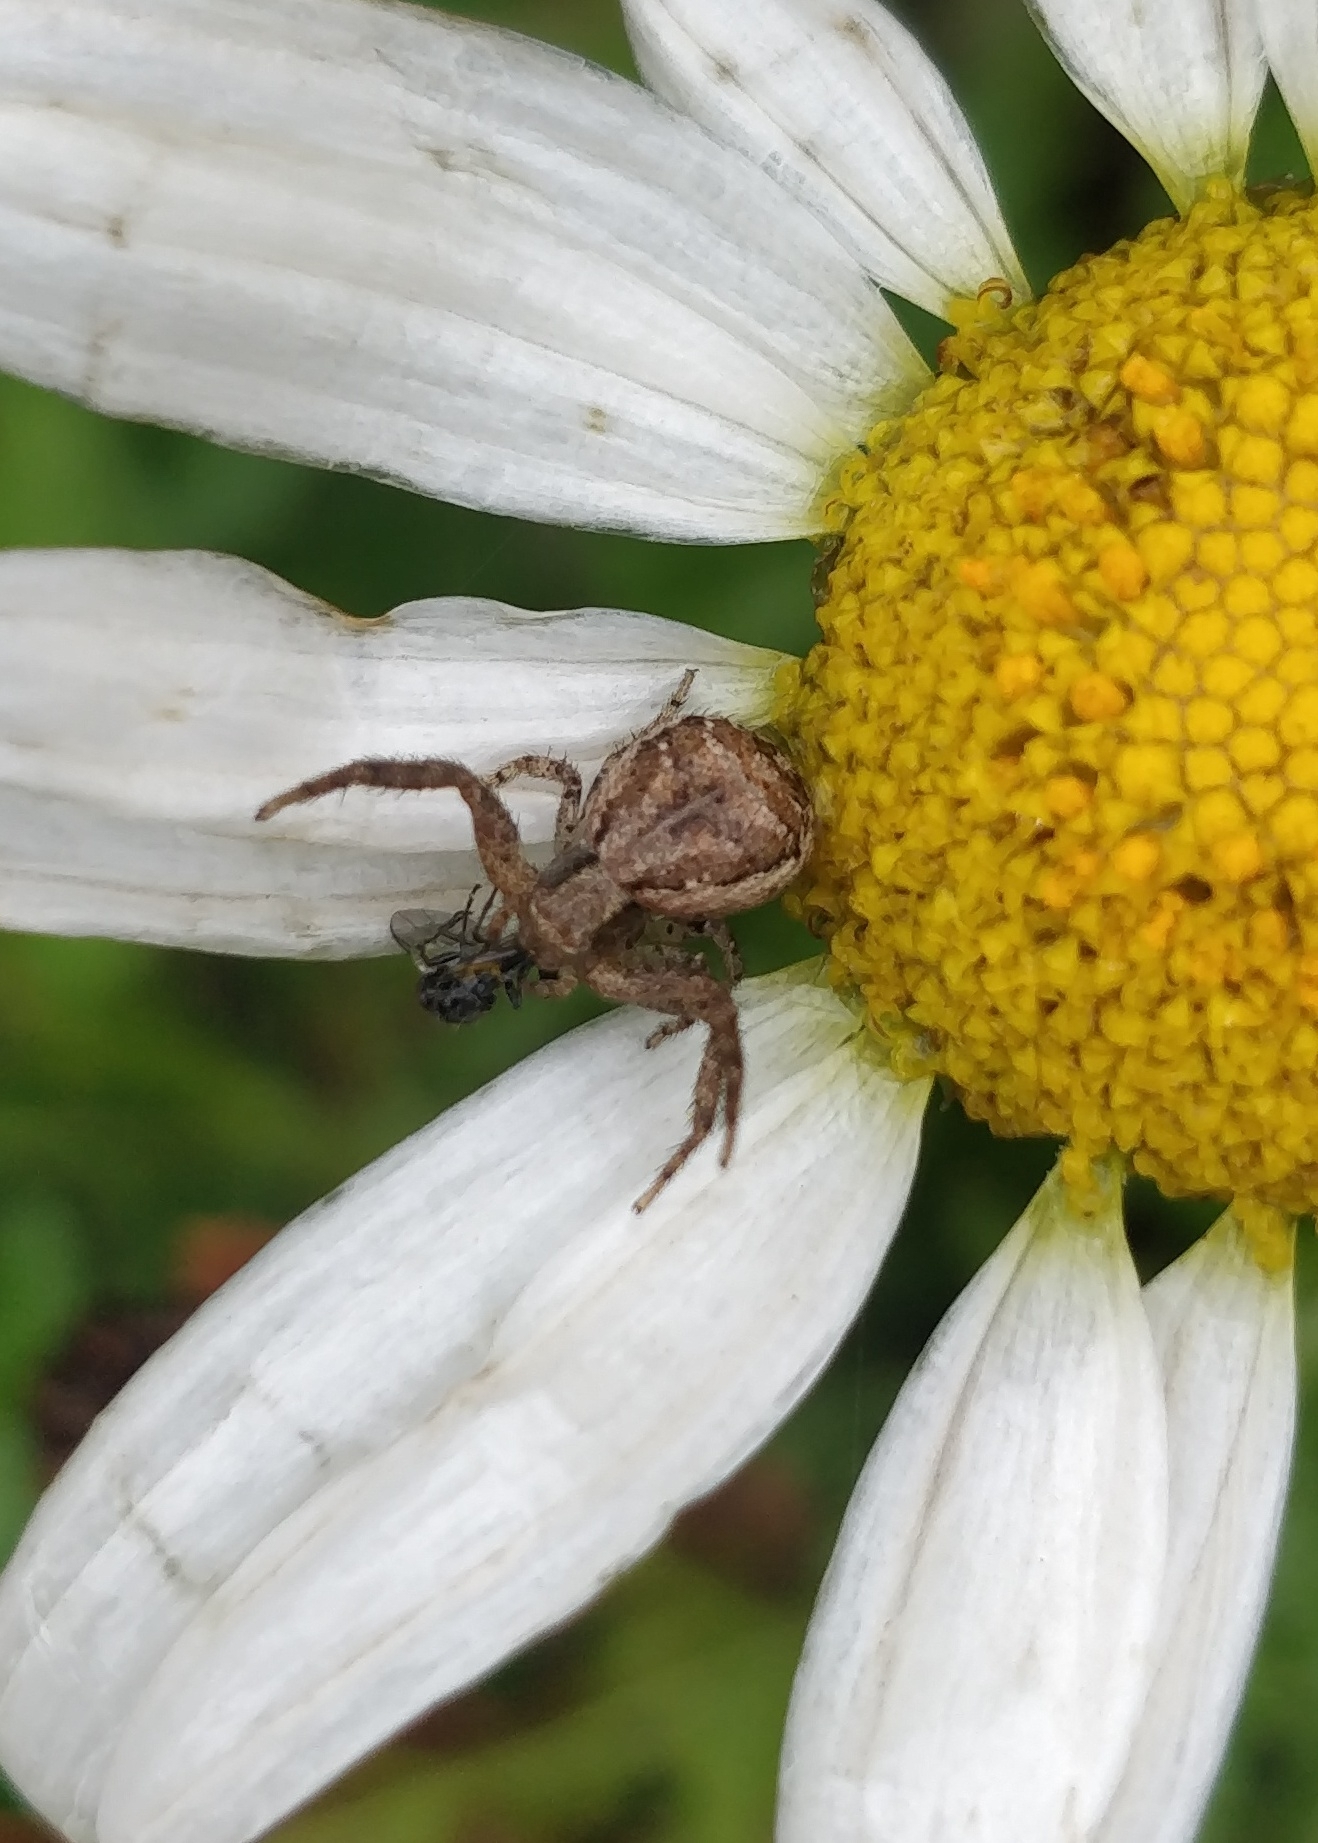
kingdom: Animalia
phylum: Arthropoda
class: Arachnida
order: Araneae
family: Thomisidae
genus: Xysticus
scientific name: Xysticus verneaui
